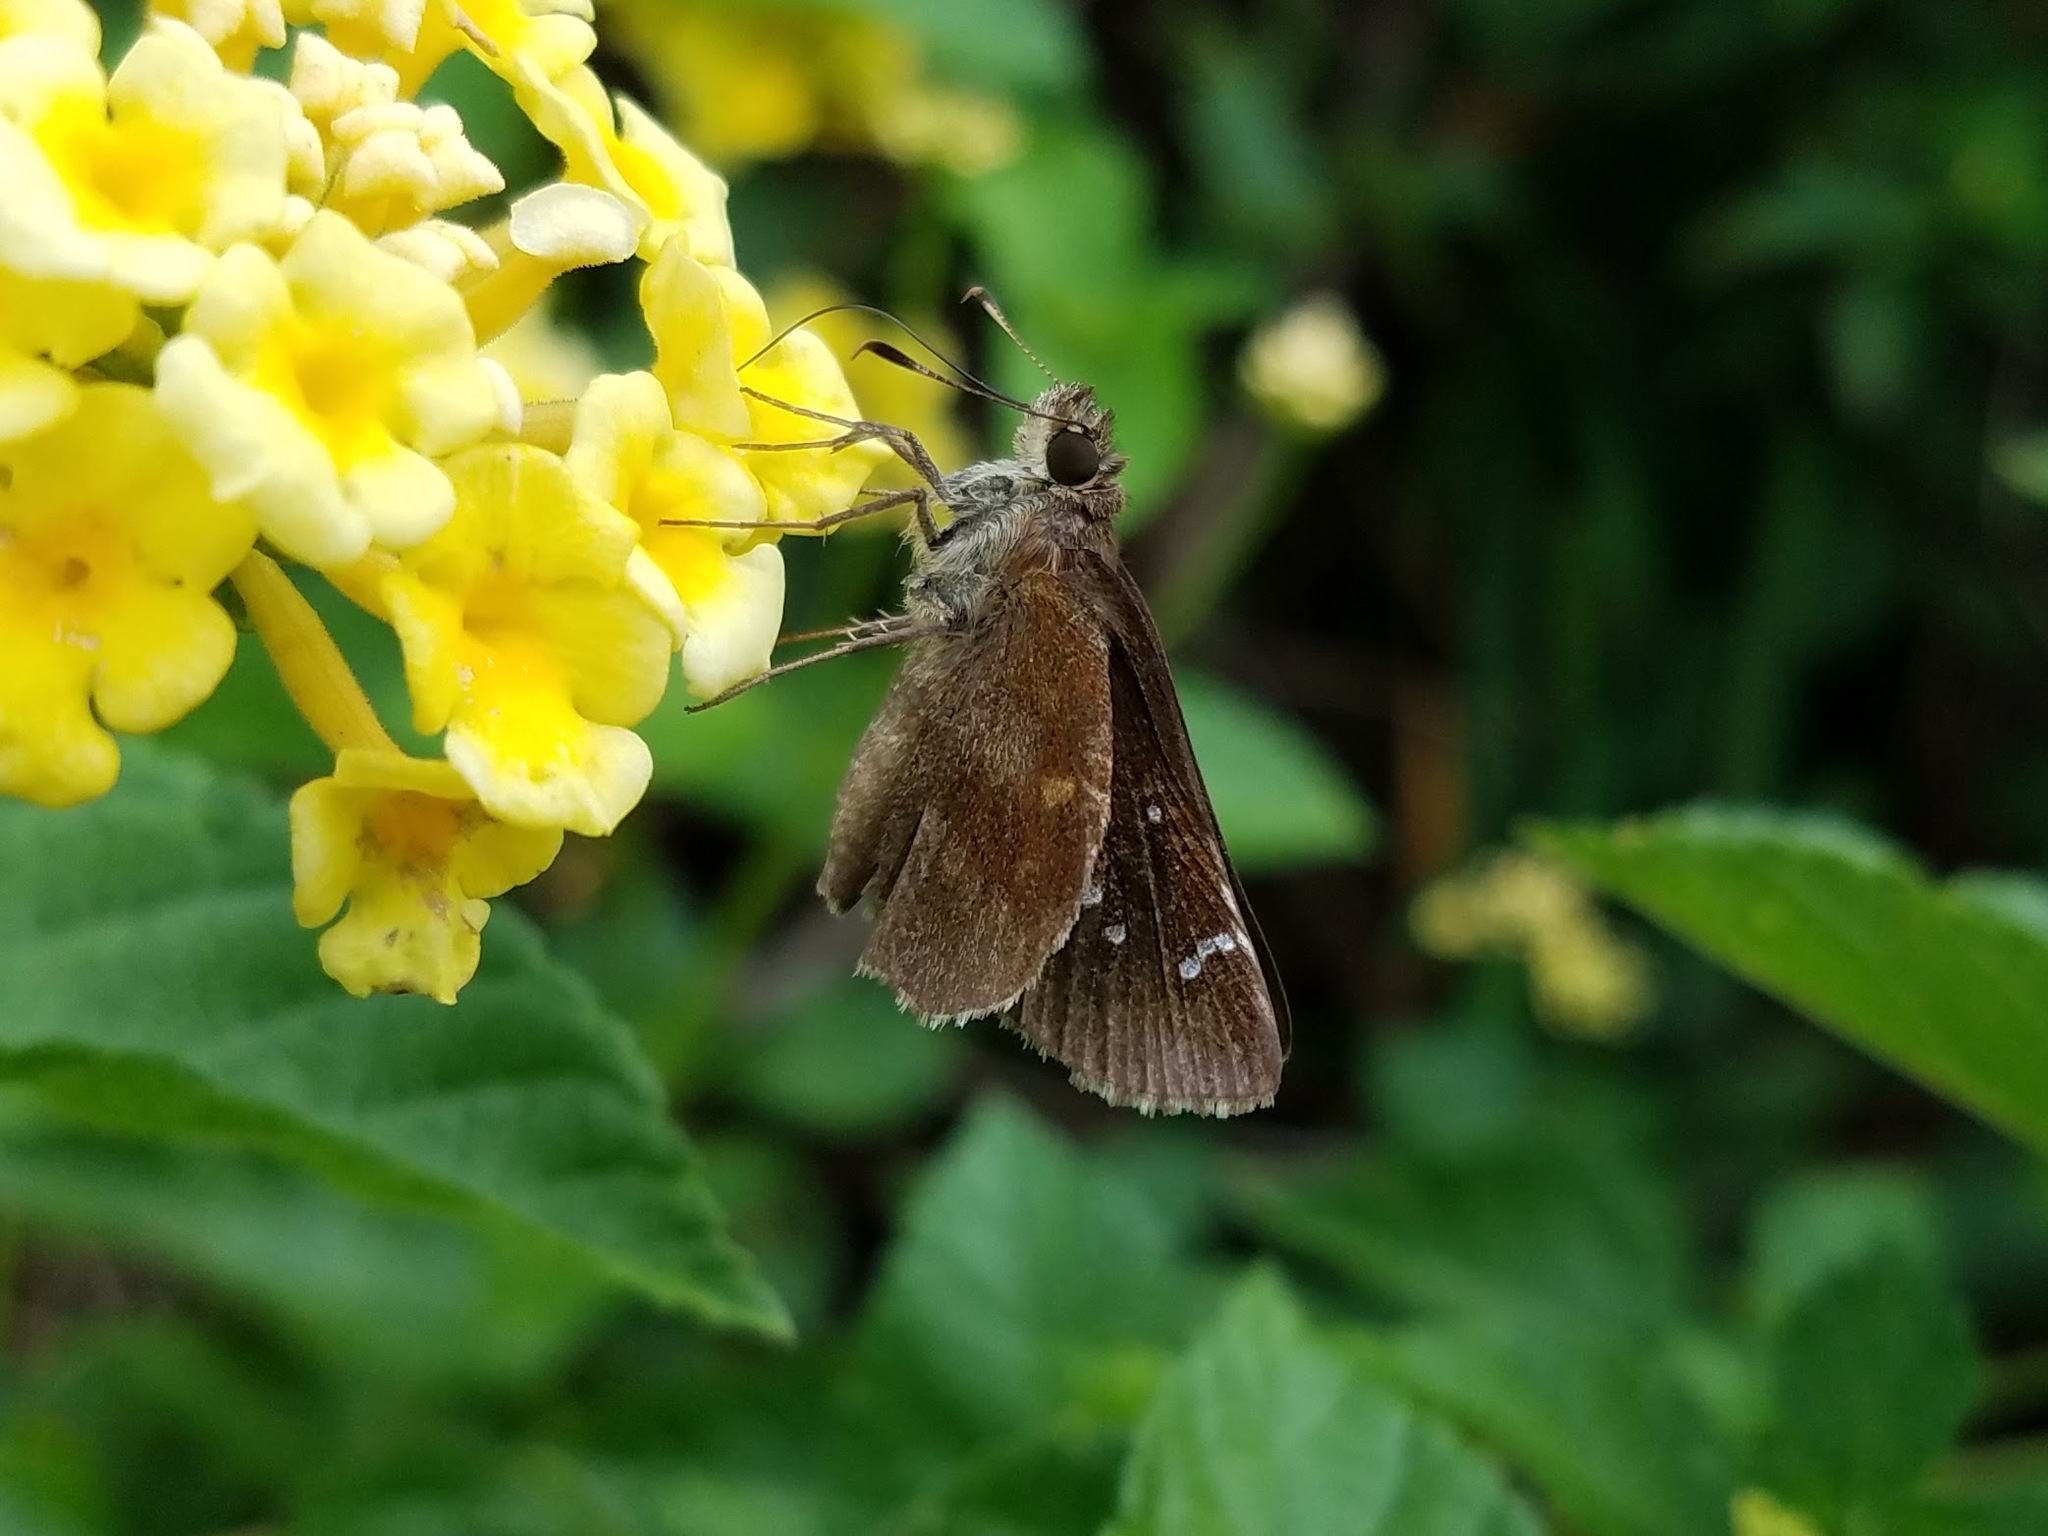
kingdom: Animalia
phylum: Arthropoda
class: Insecta
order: Lepidoptera
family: Hesperiidae
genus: Lerema
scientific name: Lerema accius
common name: Clouded skipper
